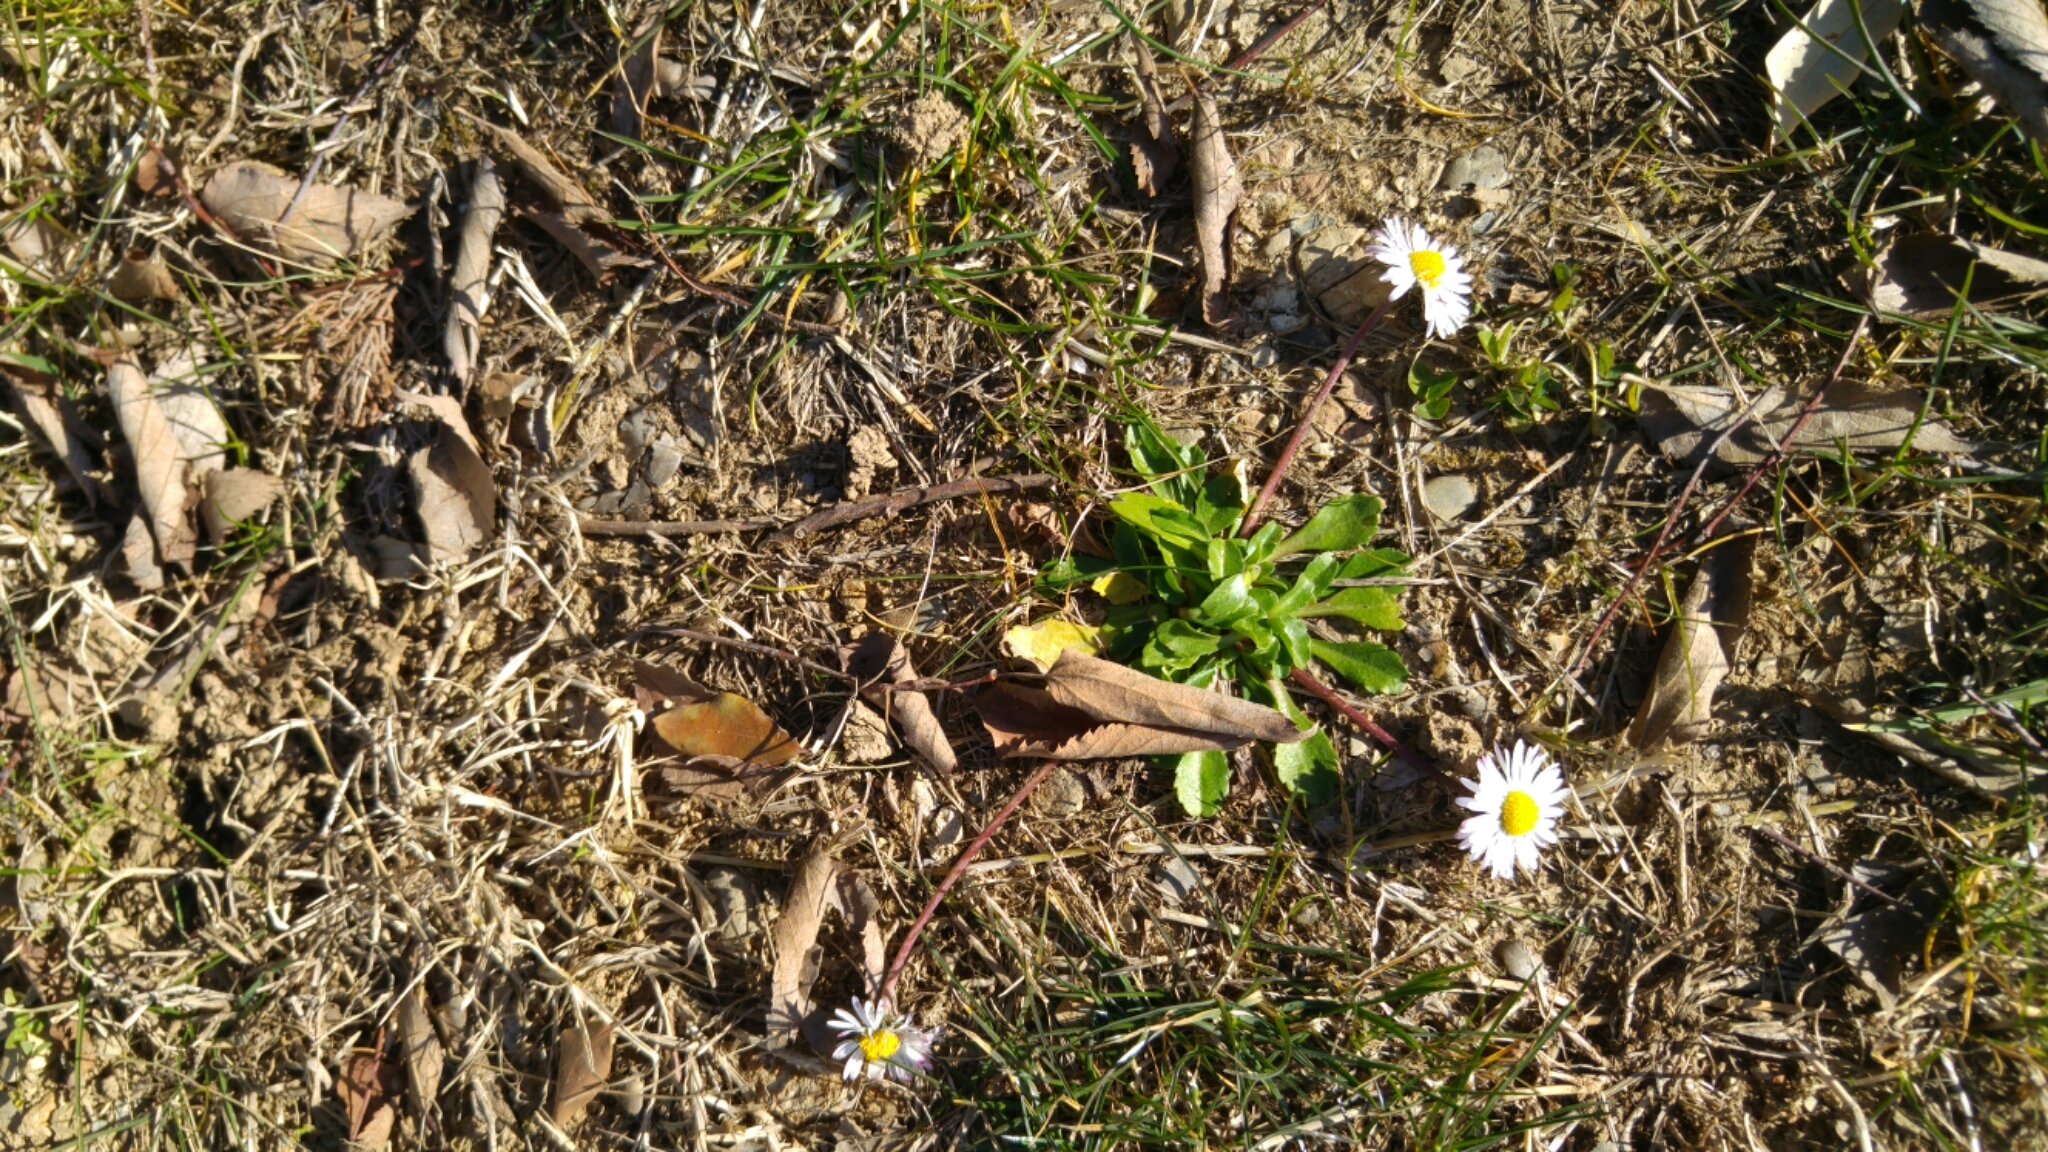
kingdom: Plantae
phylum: Tracheophyta
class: Magnoliopsida
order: Asterales
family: Asteraceae
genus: Bellis
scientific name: Bellis perennis
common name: Lawndaisy
